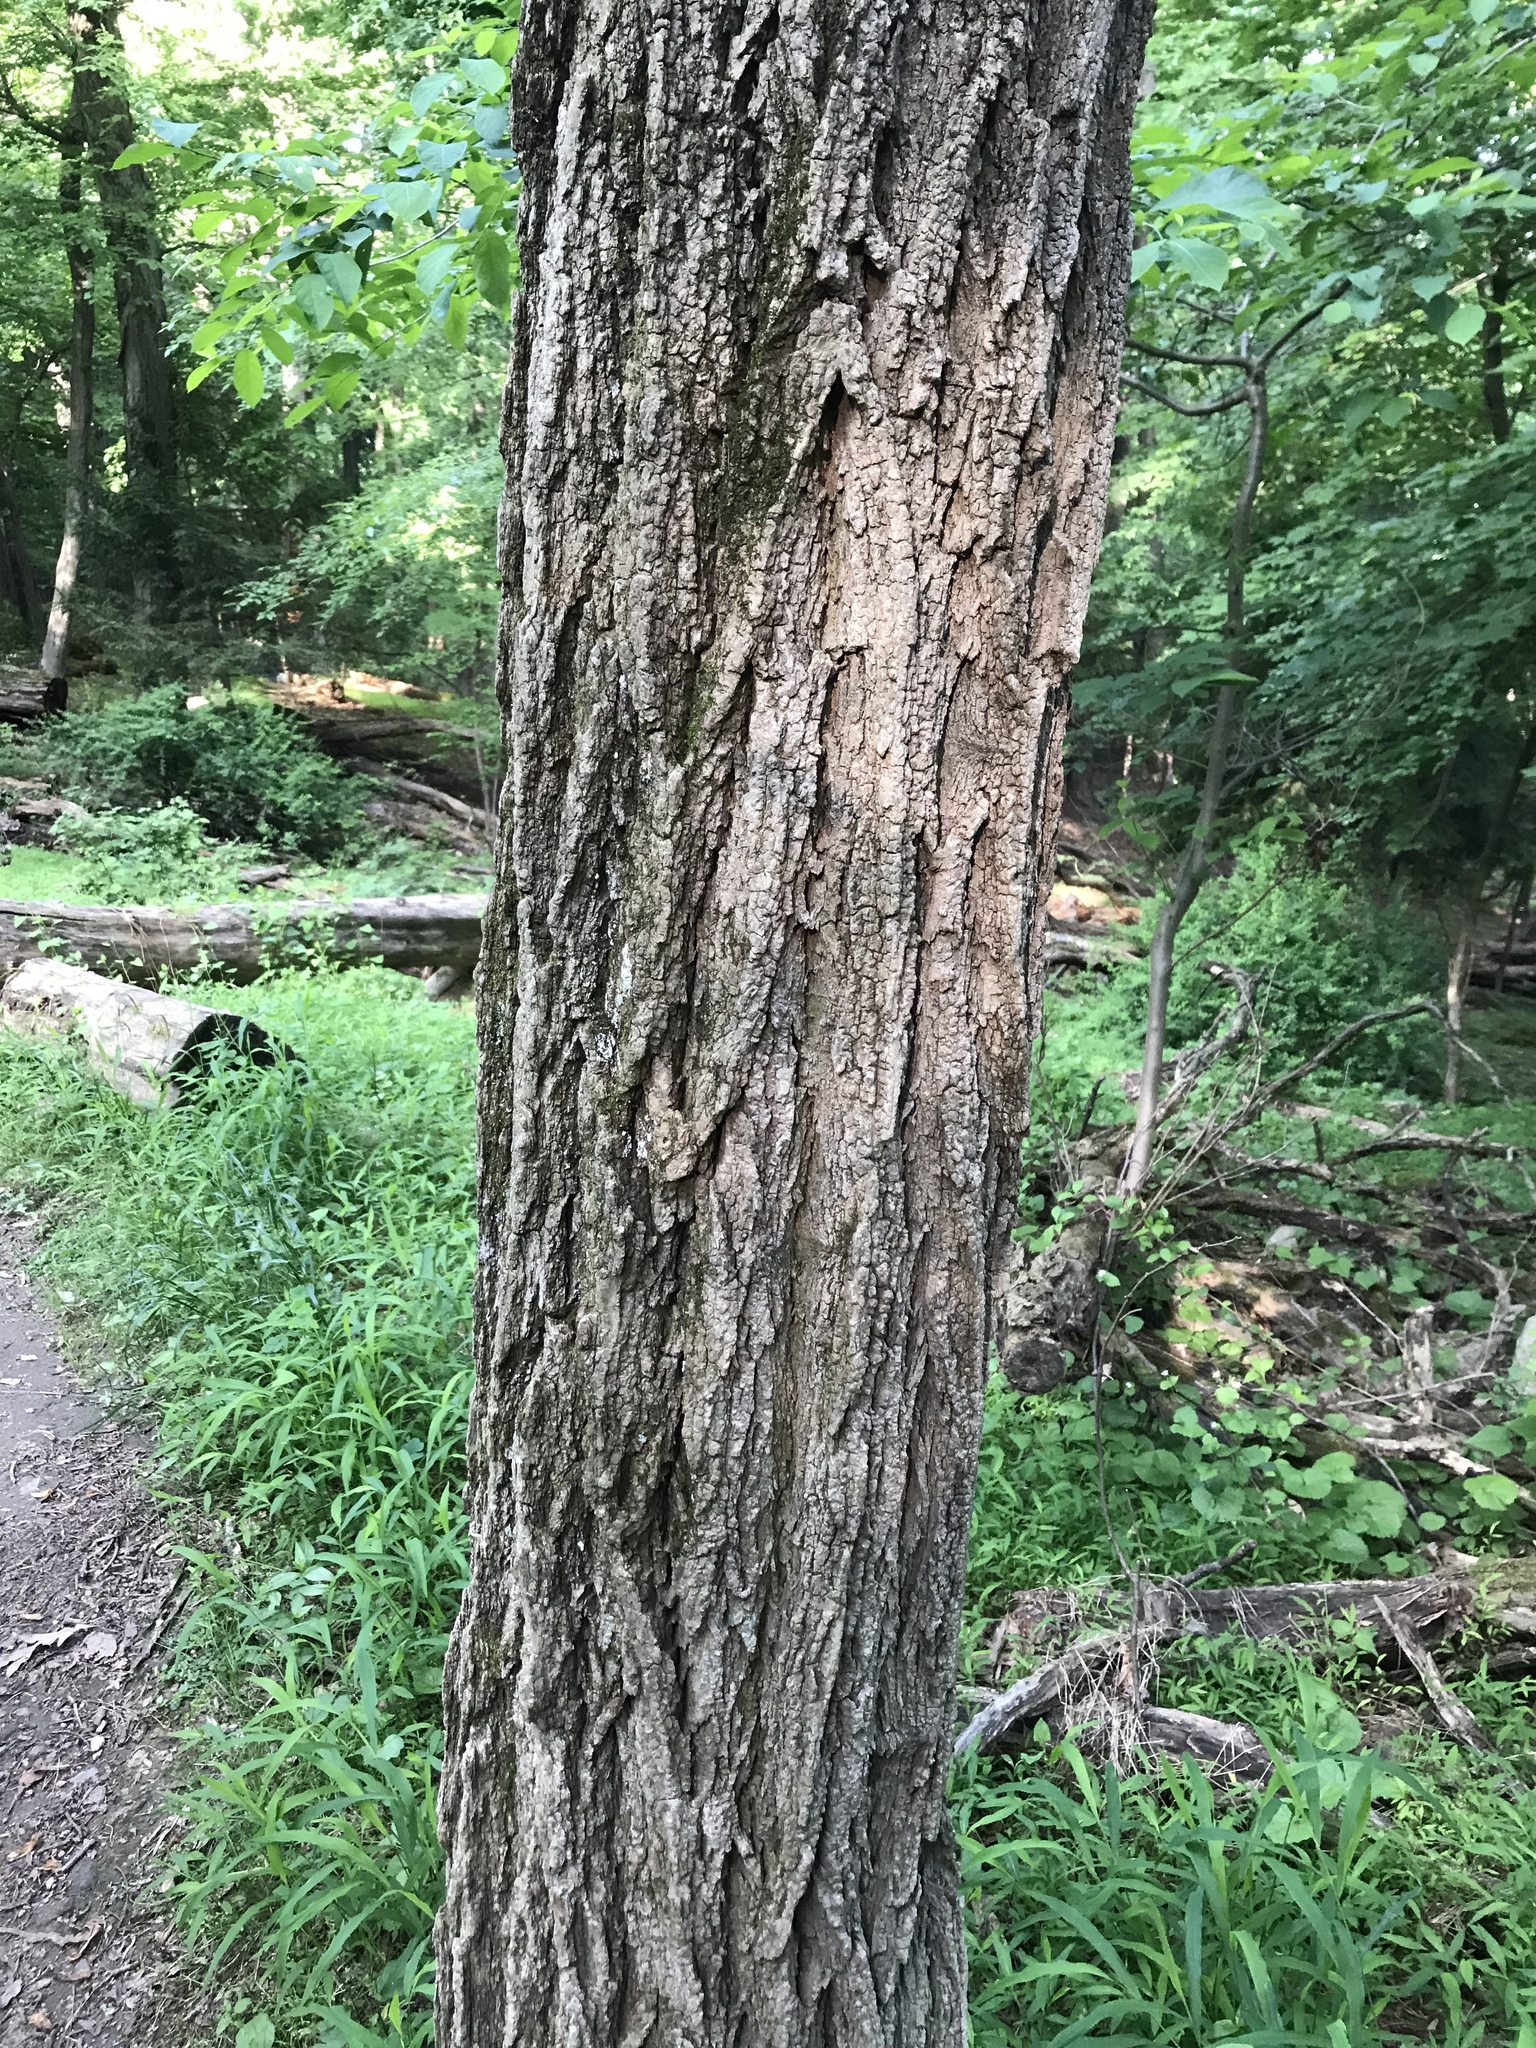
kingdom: Plantae
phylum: Tracheophyta
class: Magnoliopsida
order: Fabales
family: Fabaceae
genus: Robinia
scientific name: Robinia pseudoacacia
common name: Black locust
